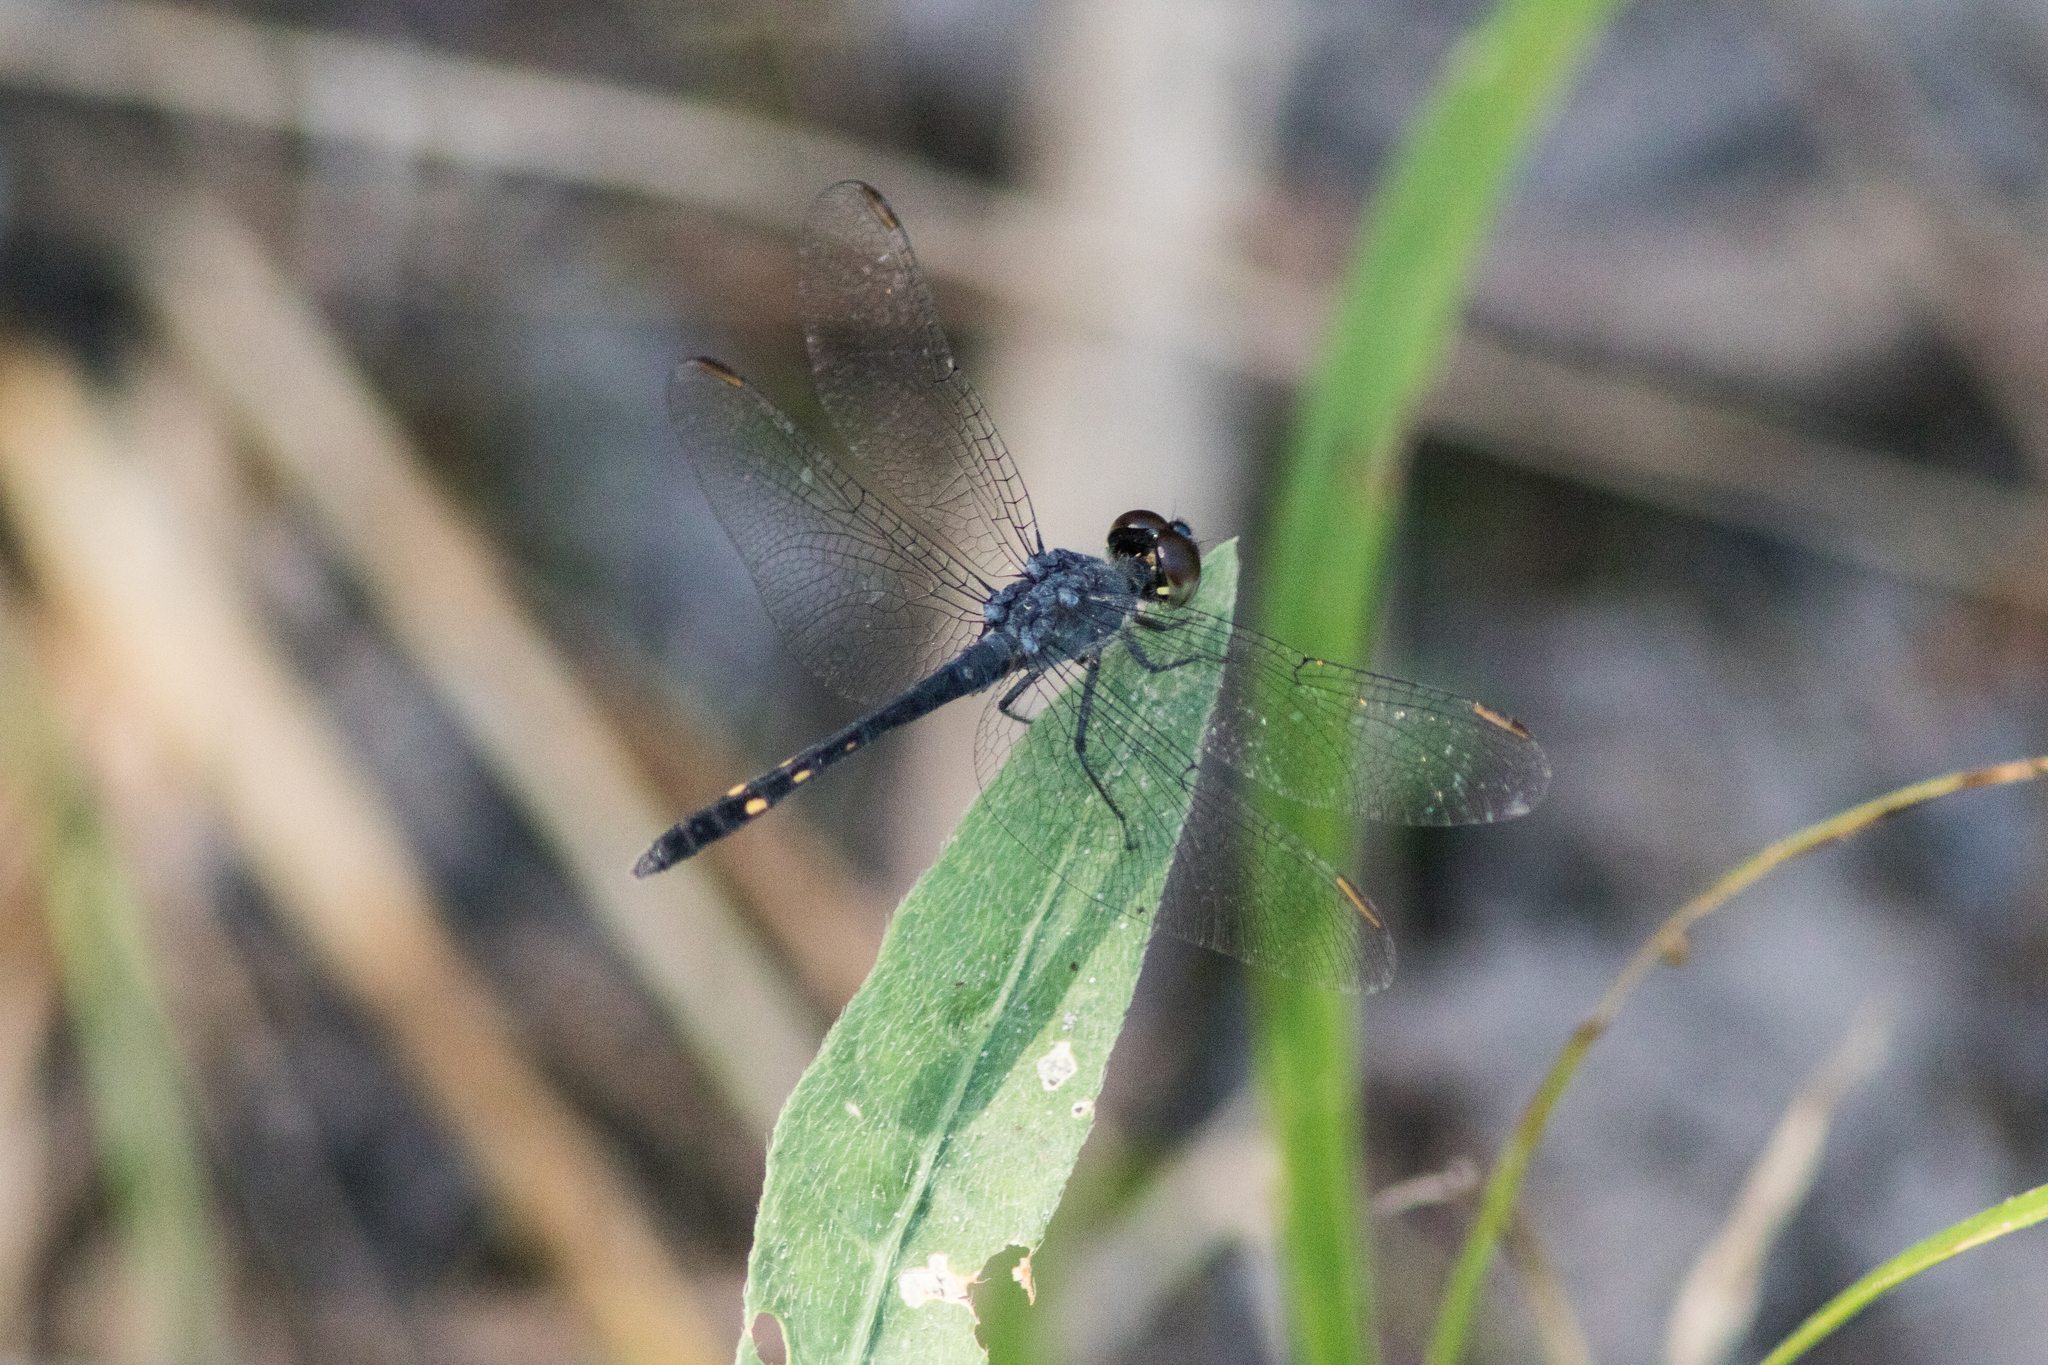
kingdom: Animalia
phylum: Arthropoda
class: Insecta
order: Odonata
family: Libellulidae
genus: Erythrodiplax
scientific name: Erythrodiplax berenice
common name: Seaside dragonlet
